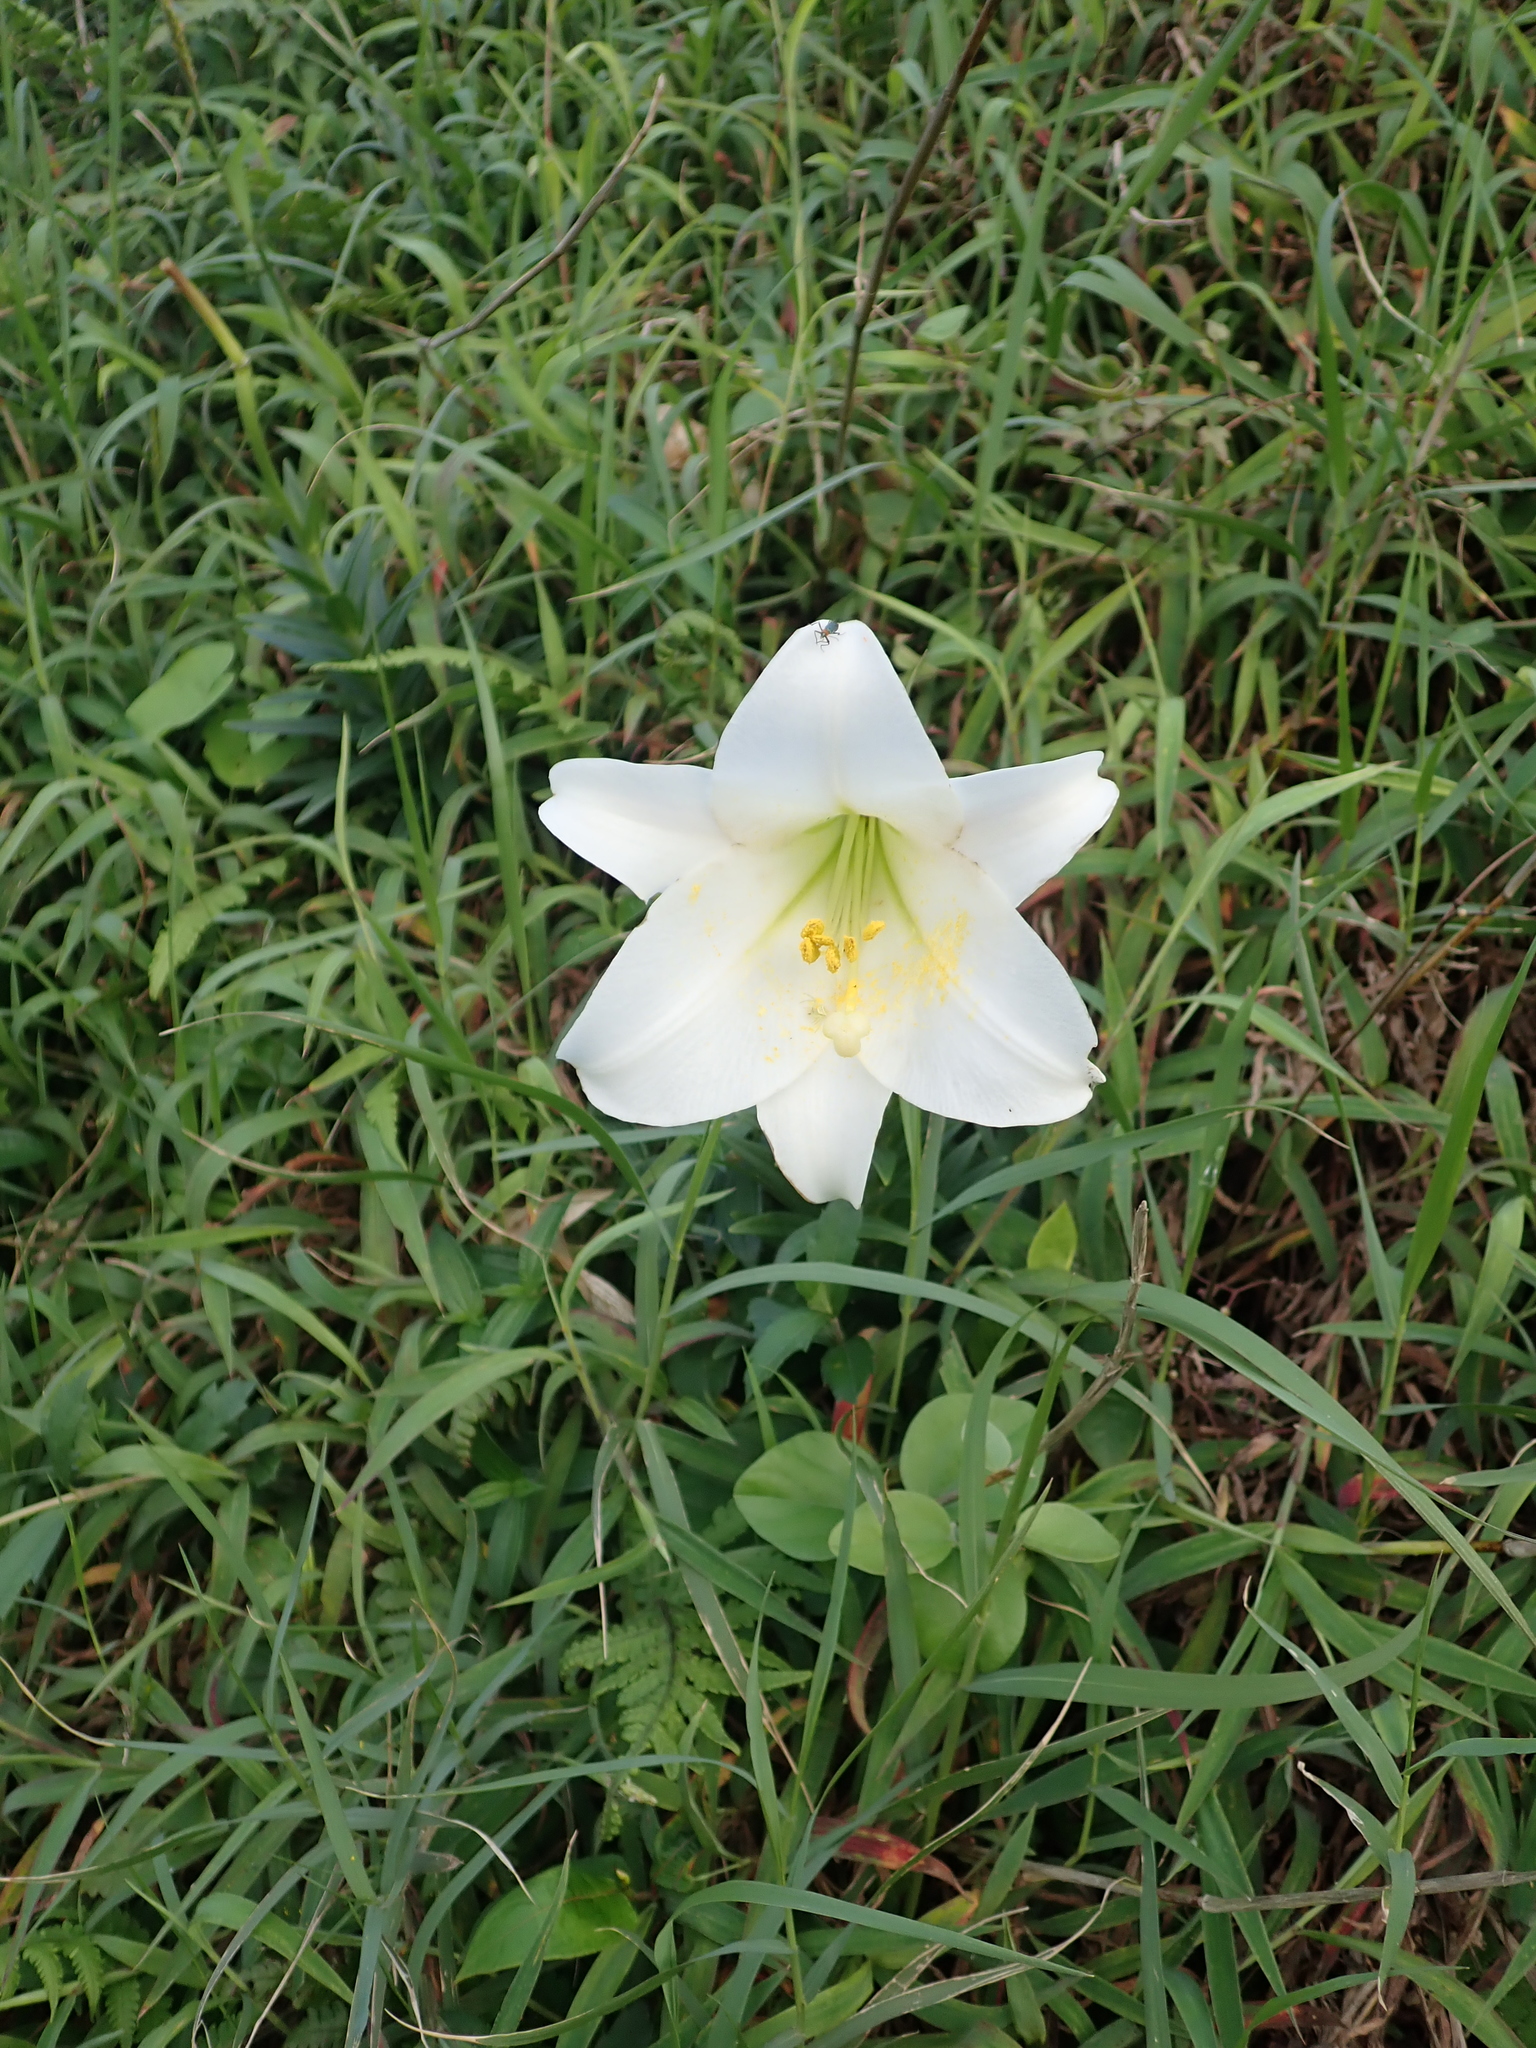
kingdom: Plantae
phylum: Tracheophyta
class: Liliopsida
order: Liliales
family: Liliaceae
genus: Lilium
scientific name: Lilium longiflorum
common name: Easter lily
